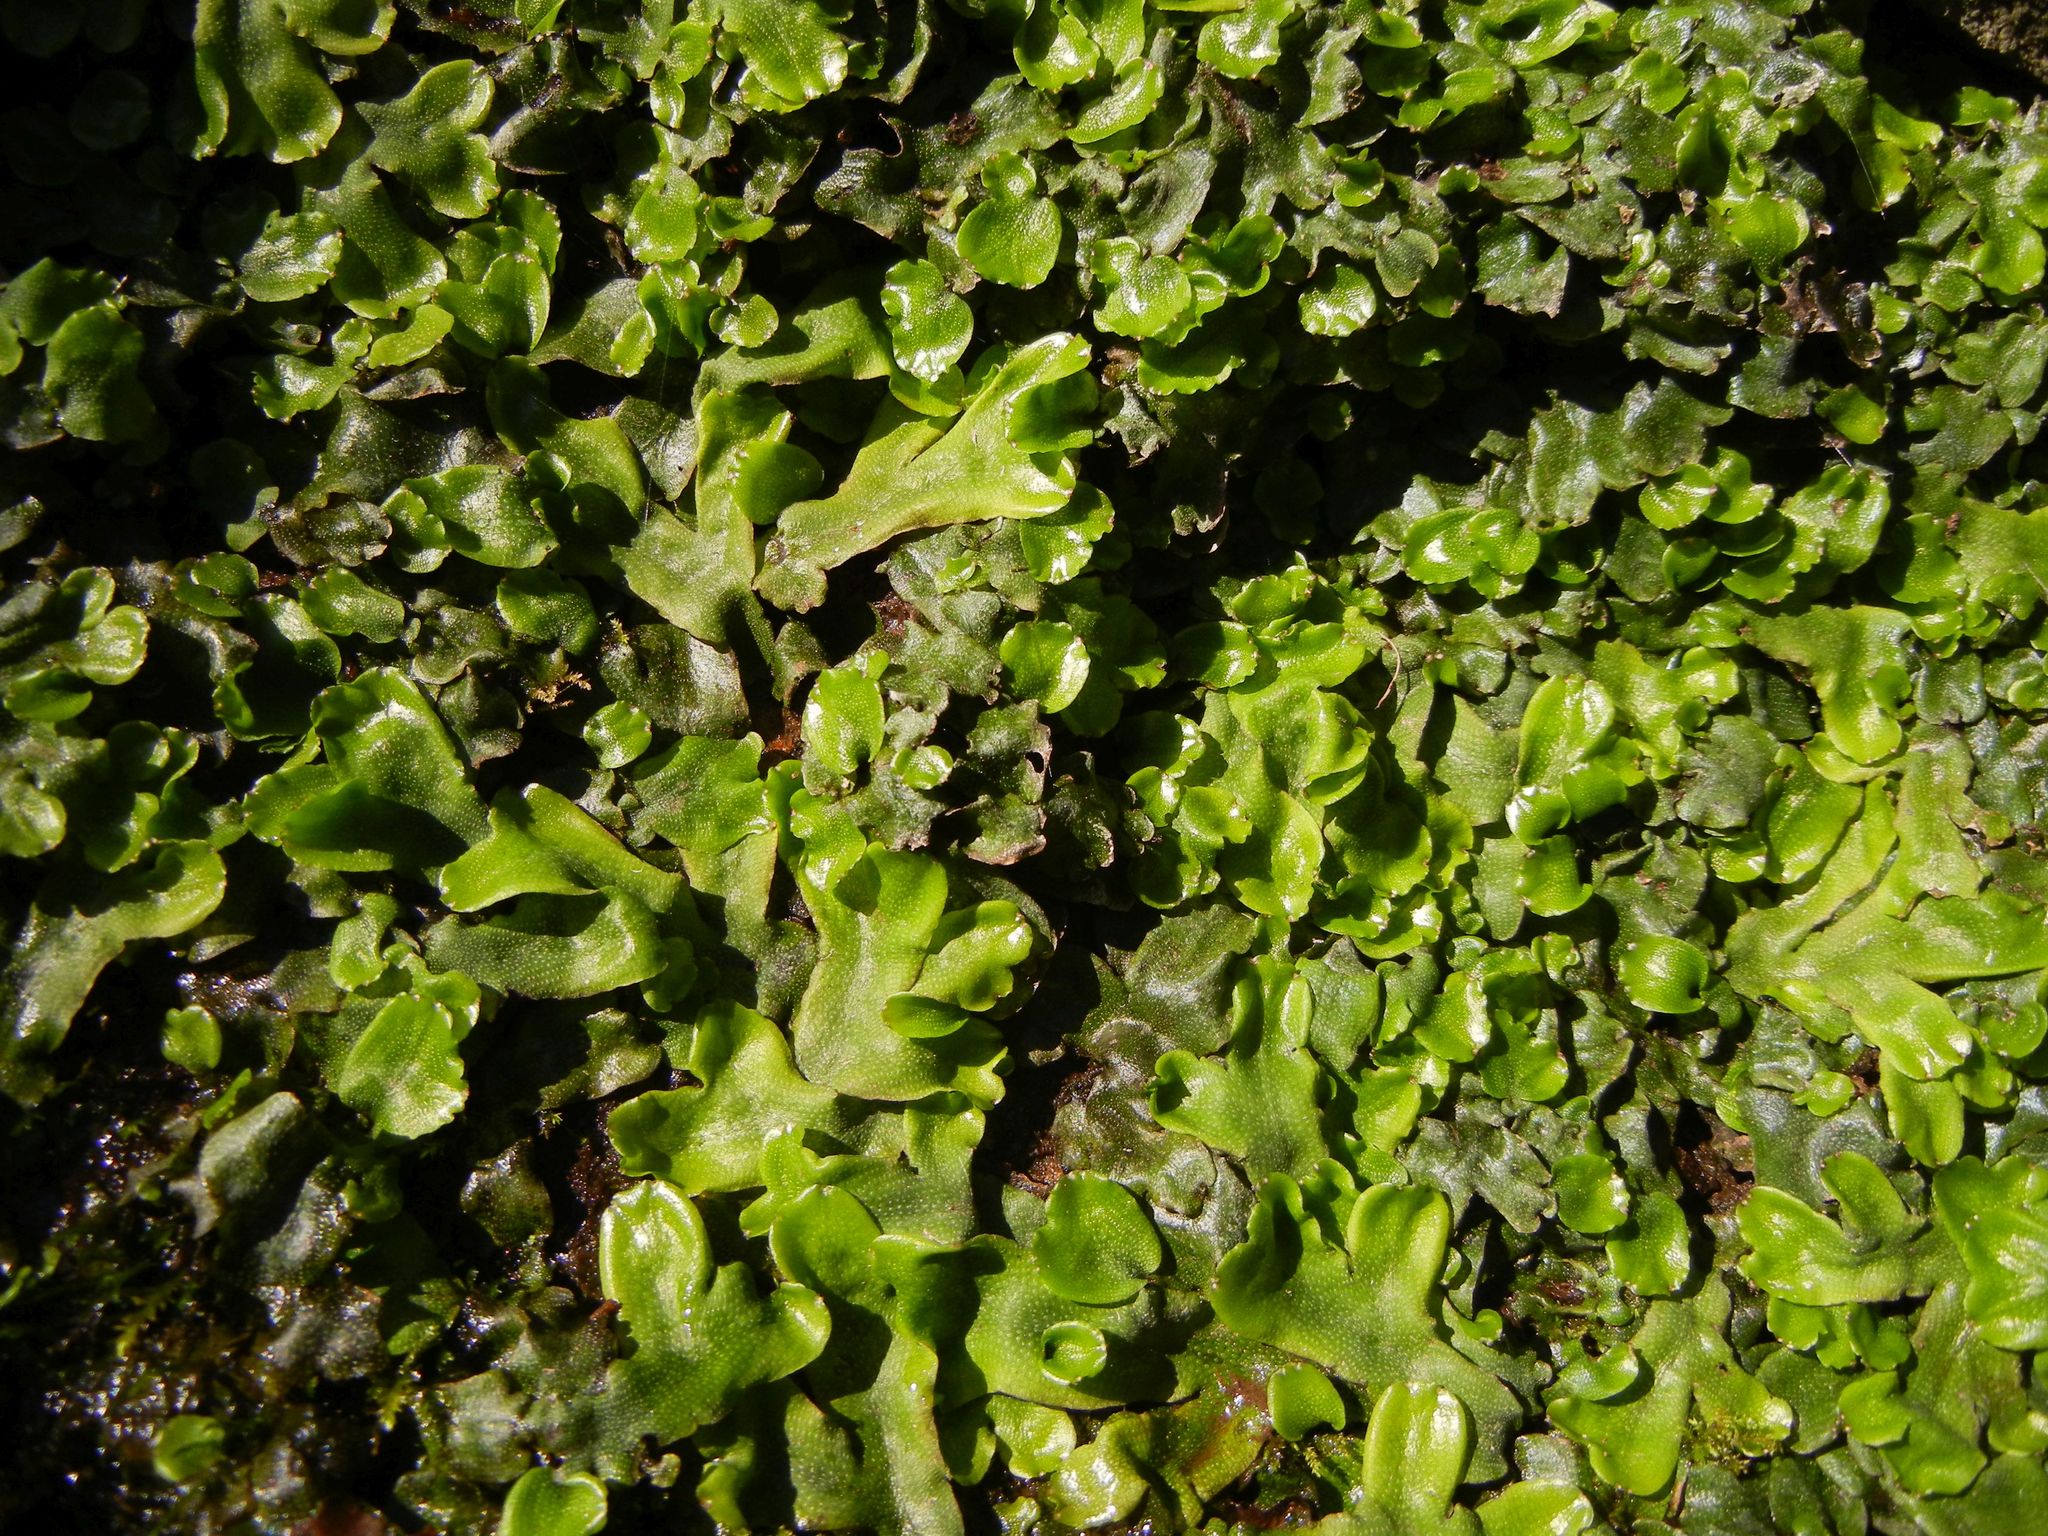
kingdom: Plantae
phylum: Marchantiophyta
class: Marchantiopsida
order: Marchantiales
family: Conocephalaceae
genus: Conocephalum
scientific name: Conocephalum conicum
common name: Great scented liverwort
